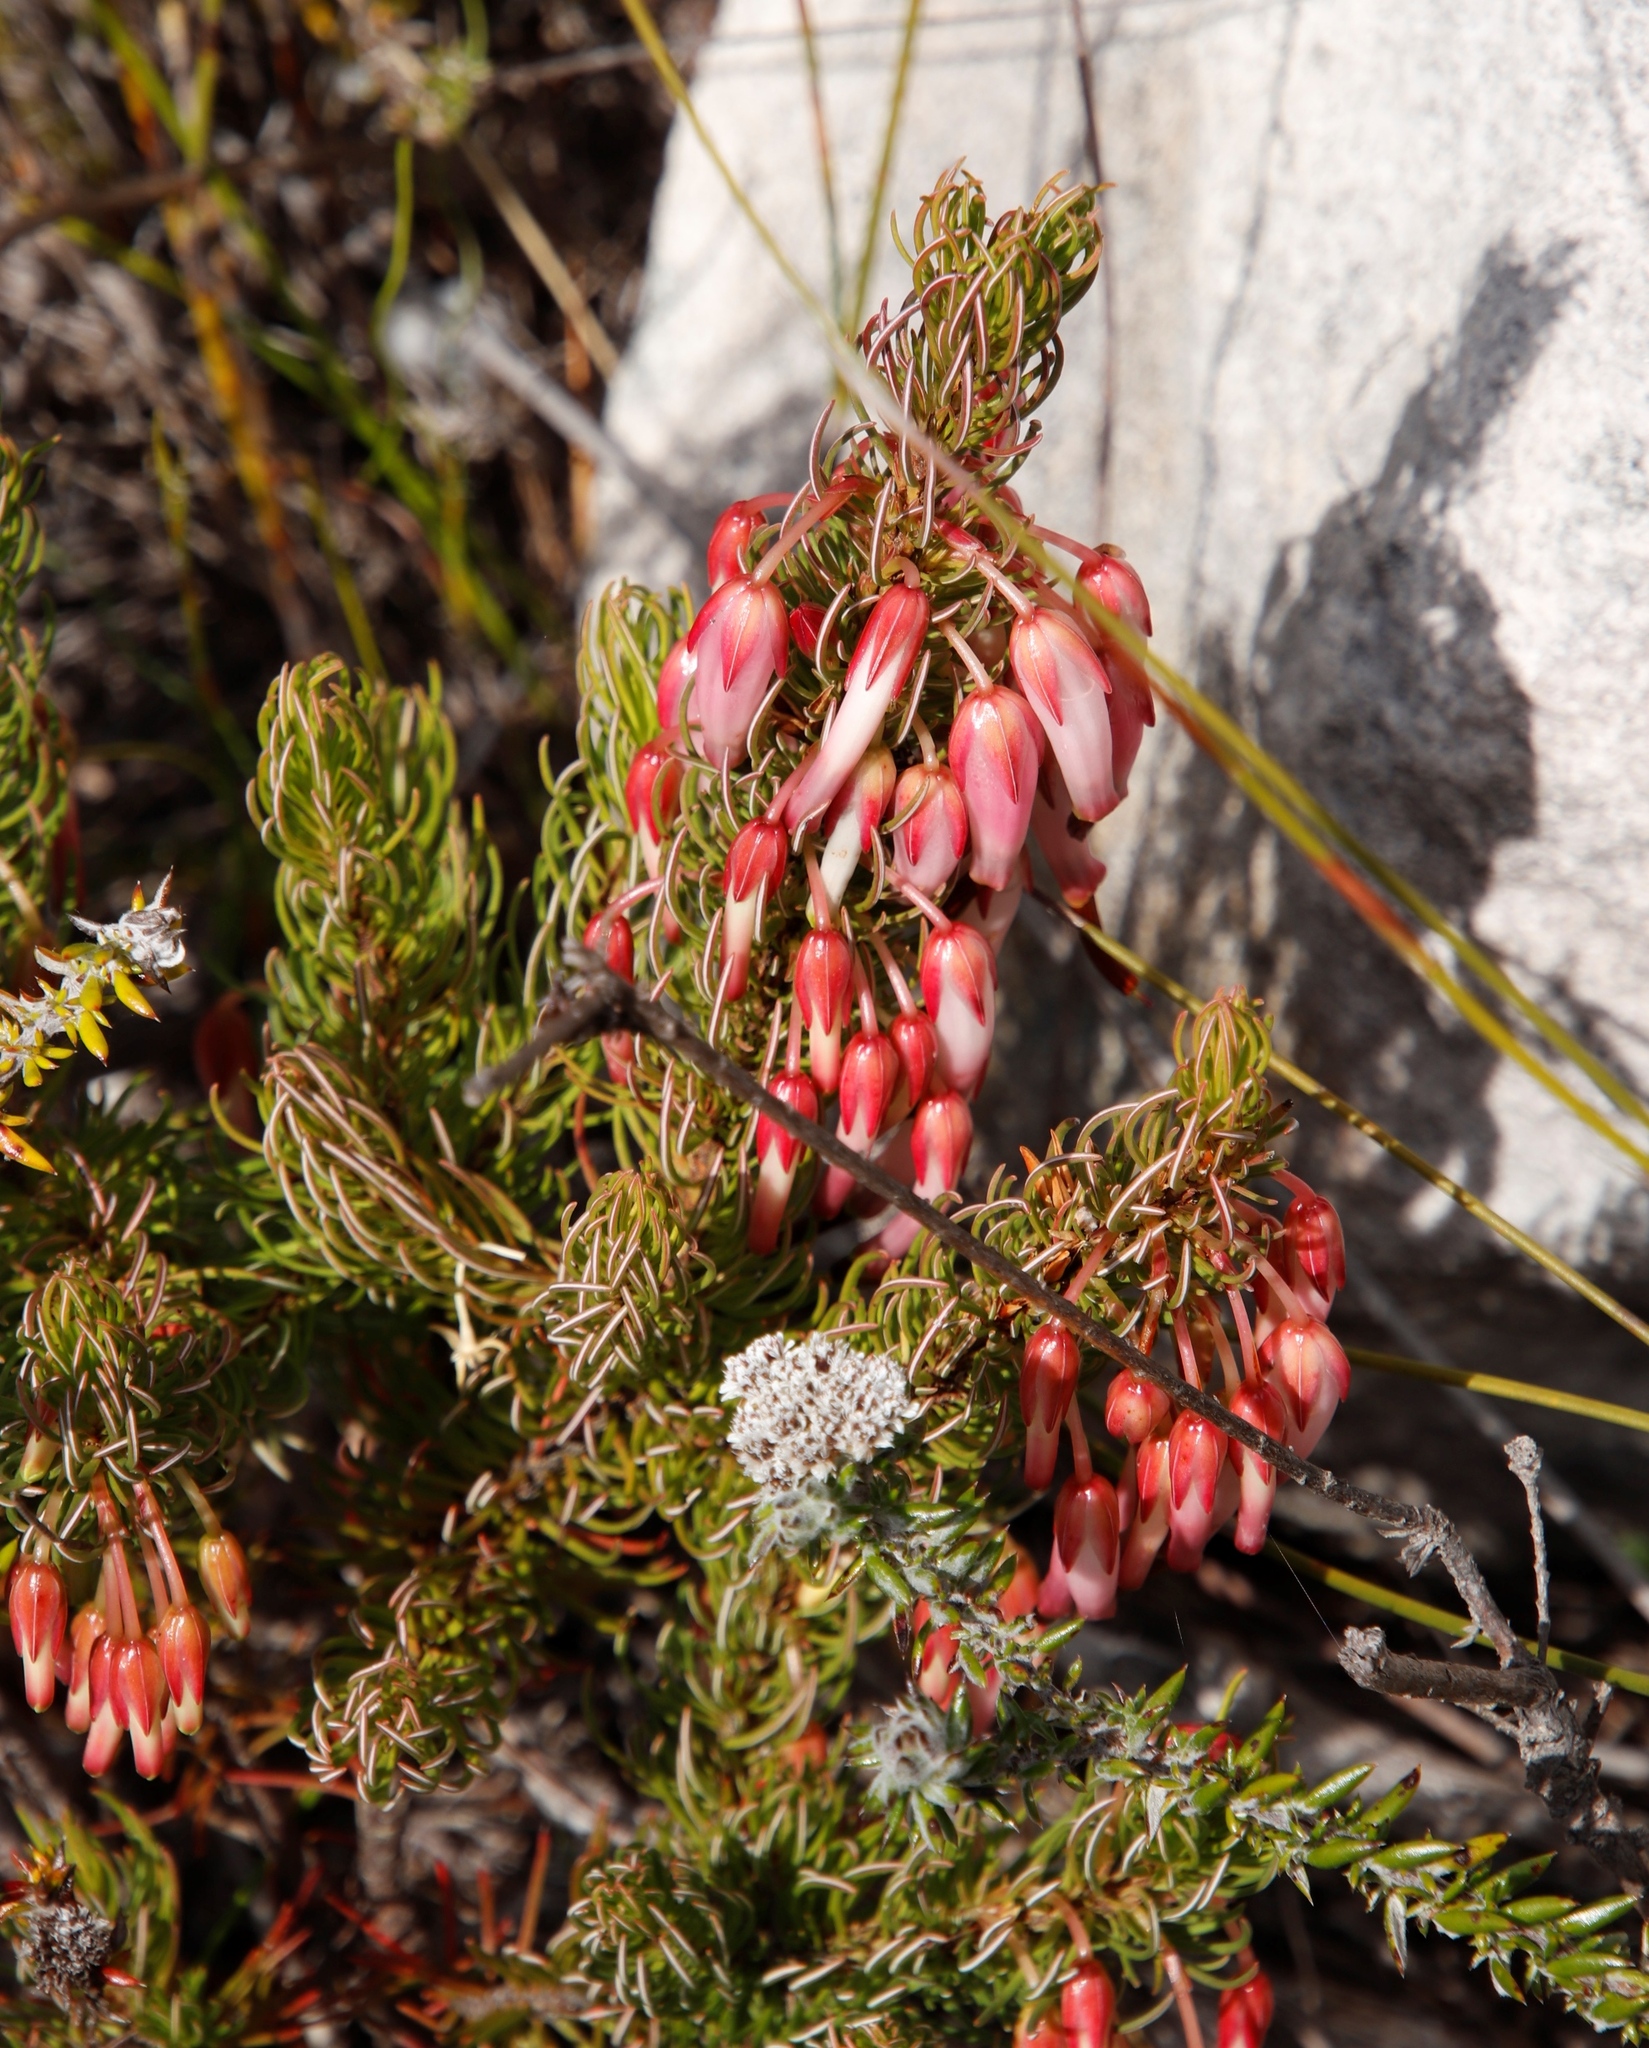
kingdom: Plantae
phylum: Tracheophyta
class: Magnoliopsida
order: Ericales
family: Ericaceae
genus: Erica
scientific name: Erica plukenetii
